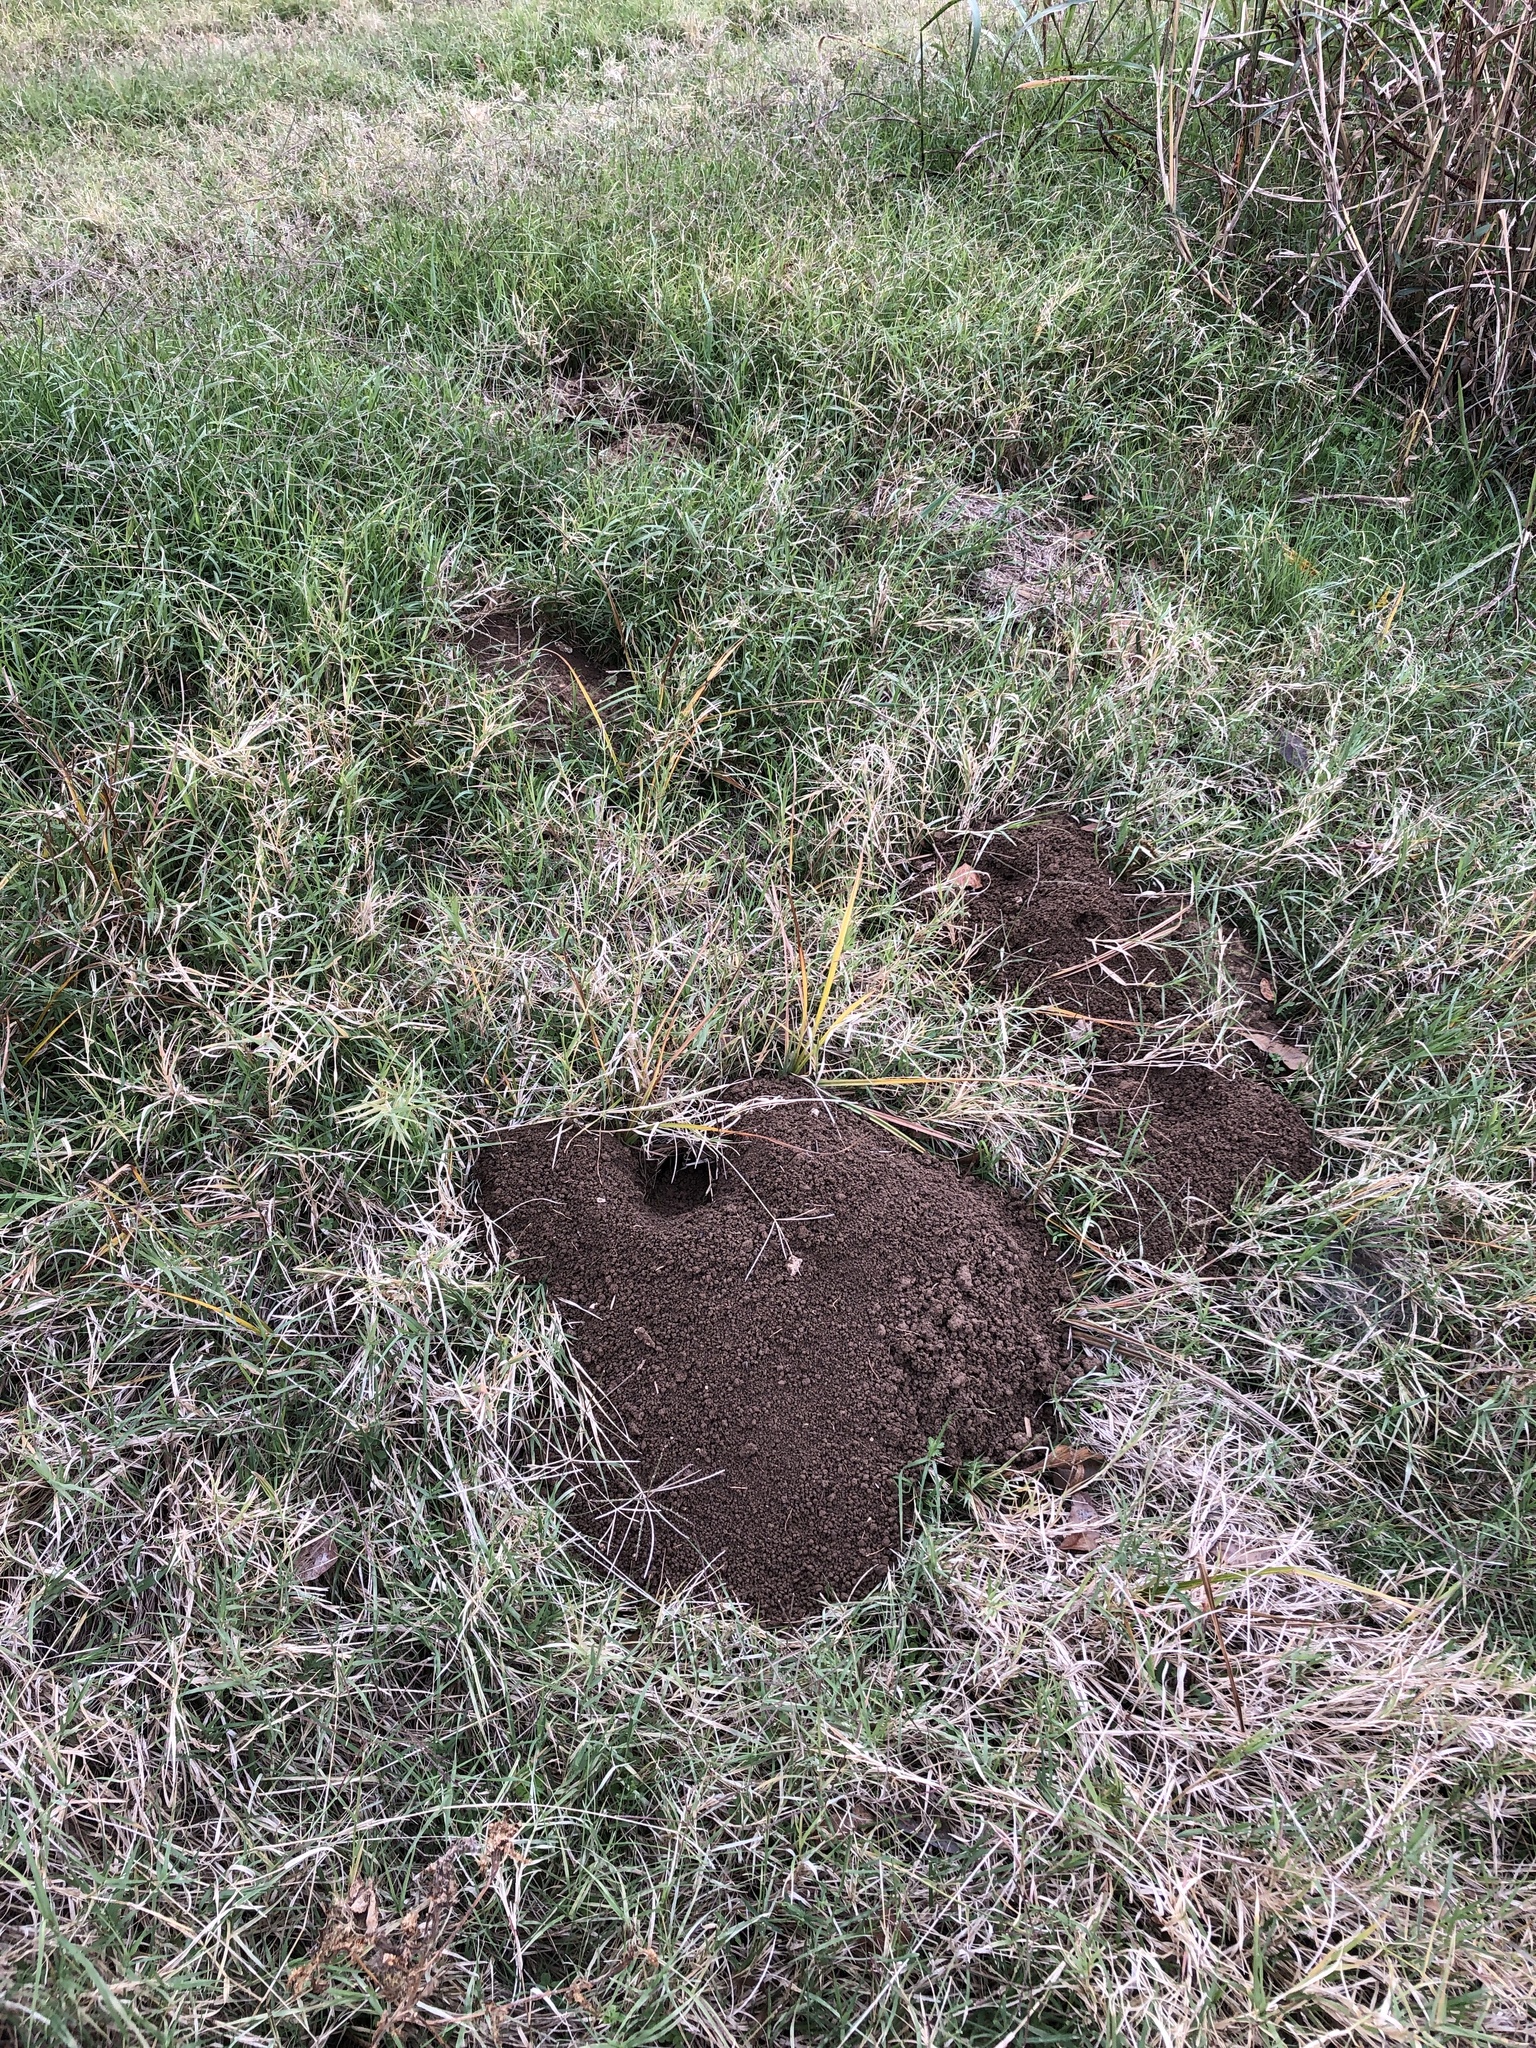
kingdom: Animalia
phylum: Chordata
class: Mammalia
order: Rodentia
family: Geomyidae
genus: Geomys
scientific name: Geomys bursarius
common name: Plains pocket gopher
